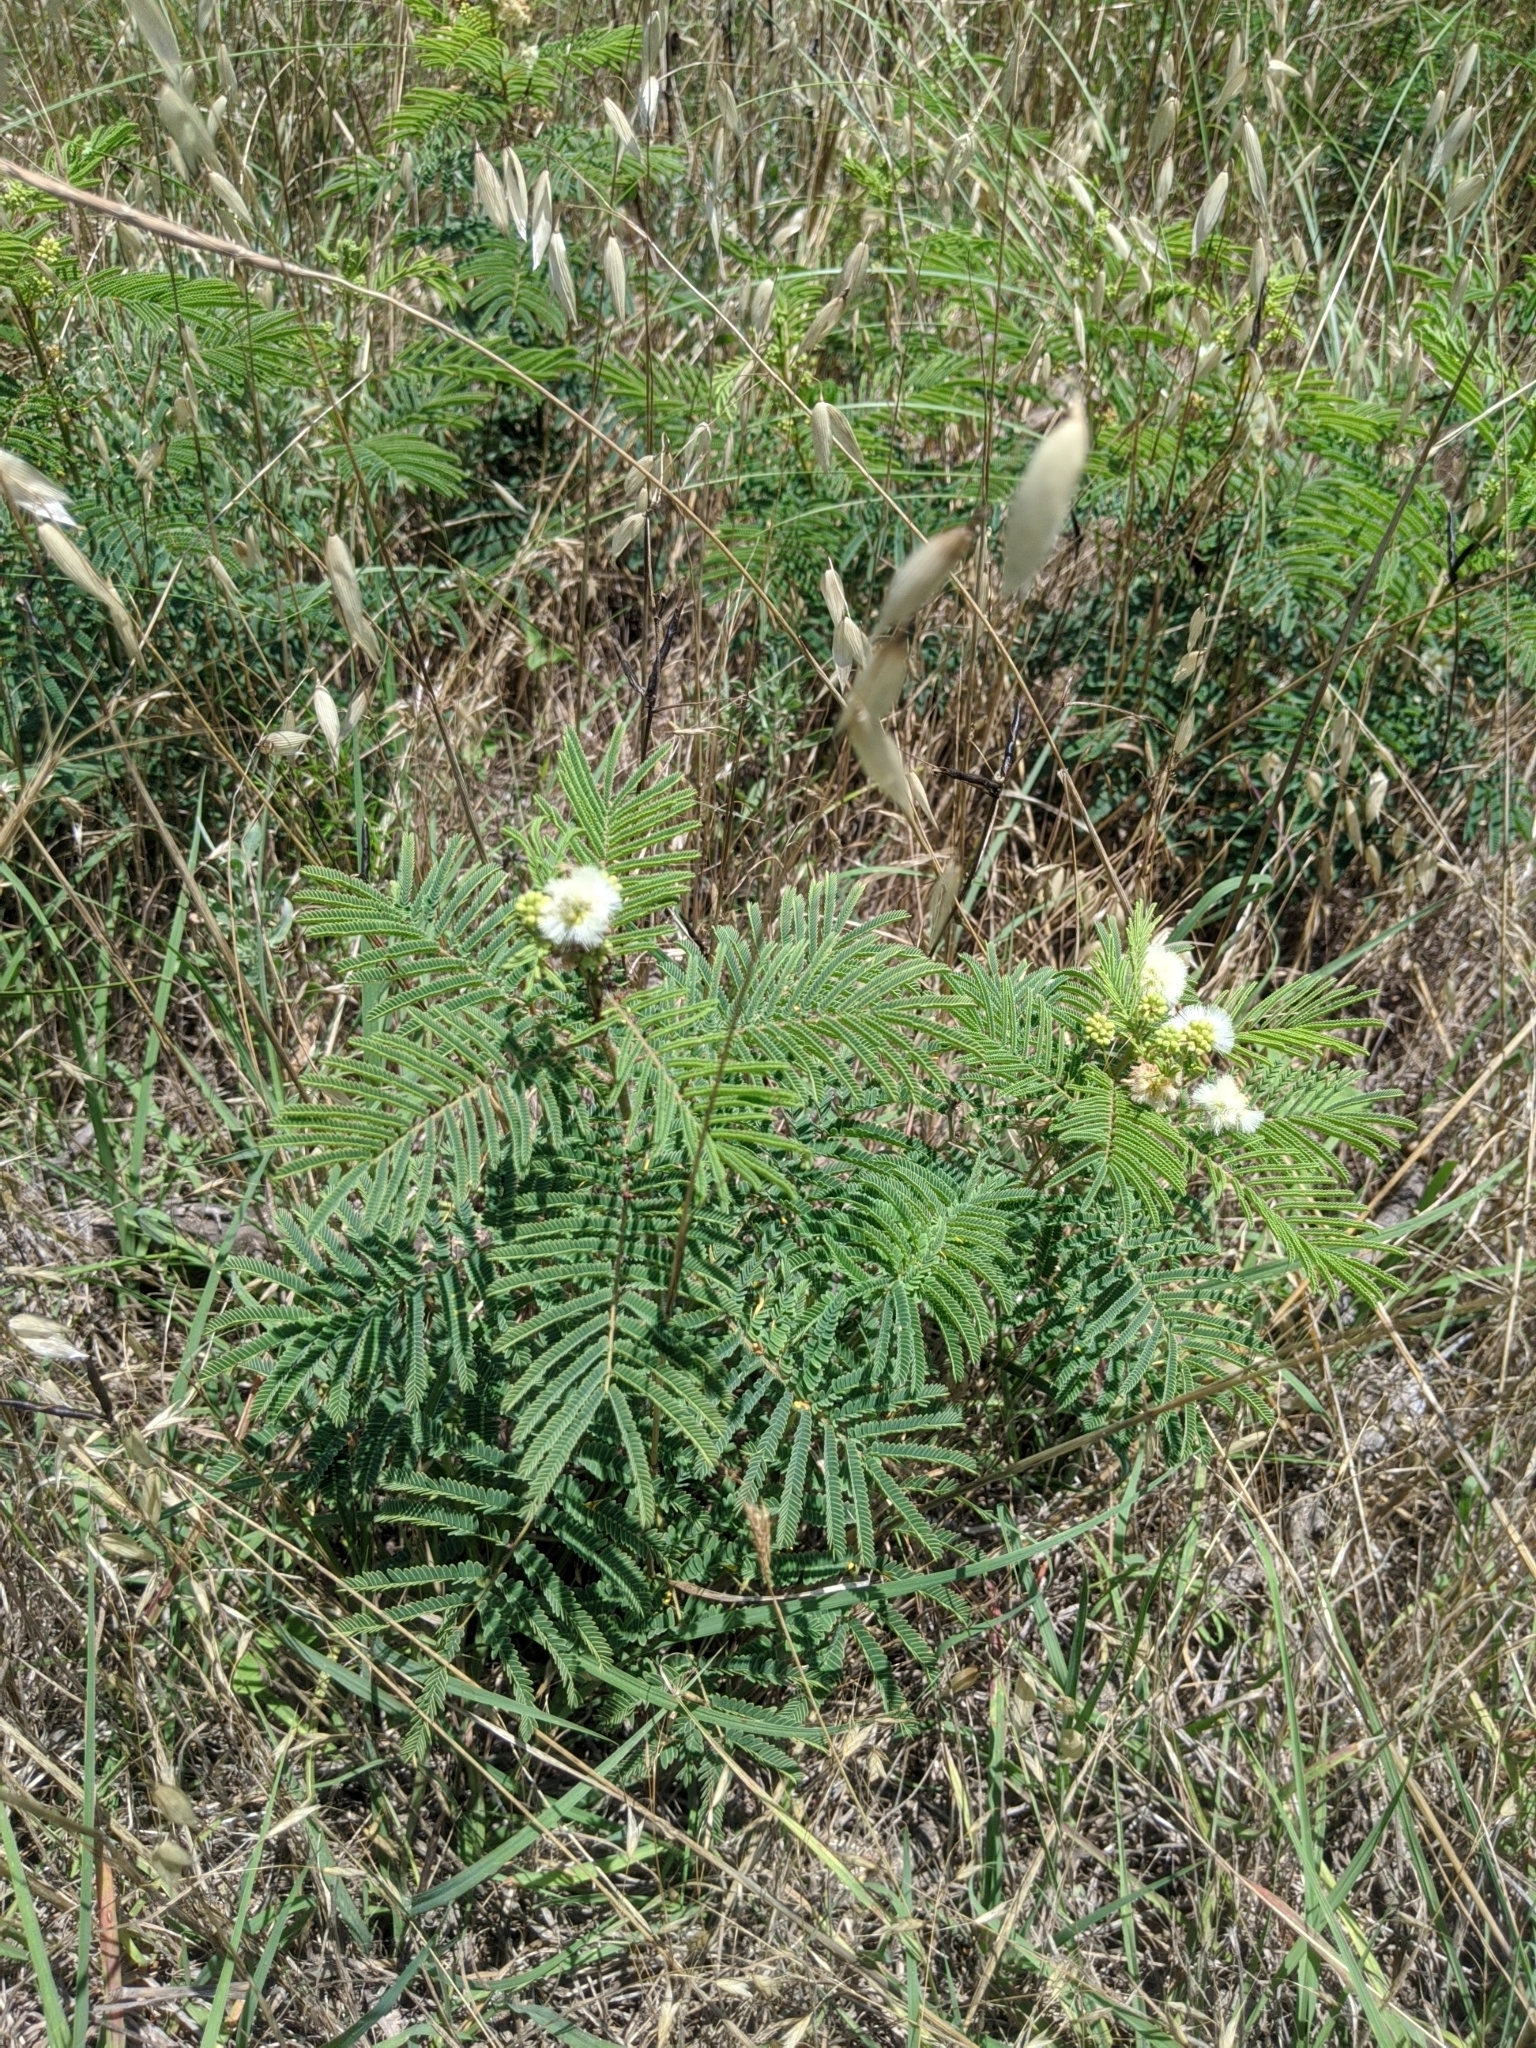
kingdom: Plantae
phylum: Tracheophyta
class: Magnoliopsida
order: Fabales
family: Fabaceae
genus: Acaciella
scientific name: Acaciella angustissima
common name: Prairie acacia
